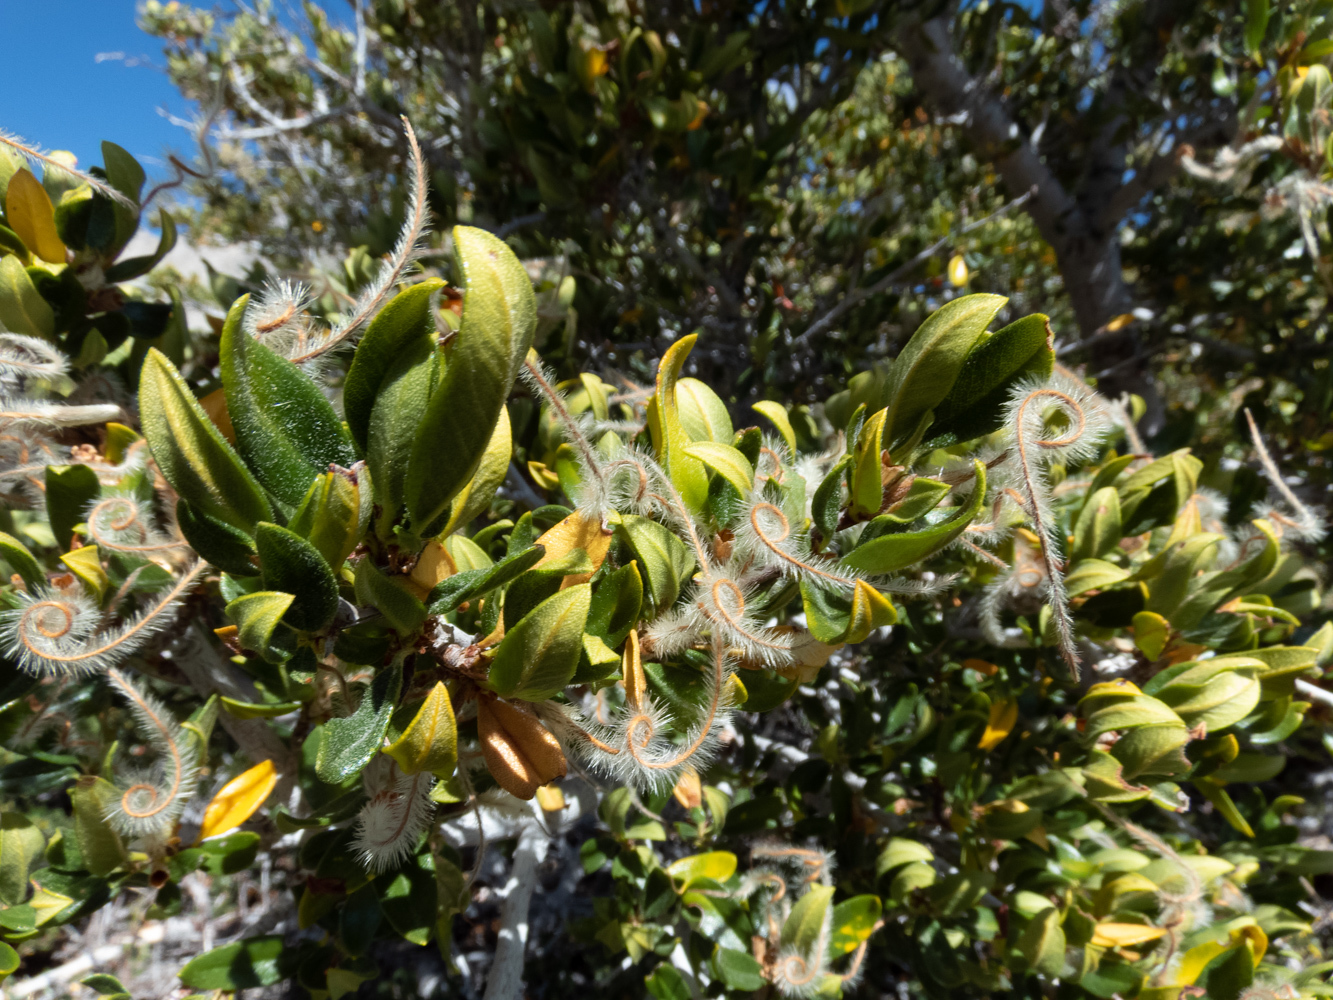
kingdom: Plantae
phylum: Tracheophyta
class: Magnoliopsida
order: Rosales
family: Rosaceae
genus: Cercocarpus
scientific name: Cercocarpus ledifolius
